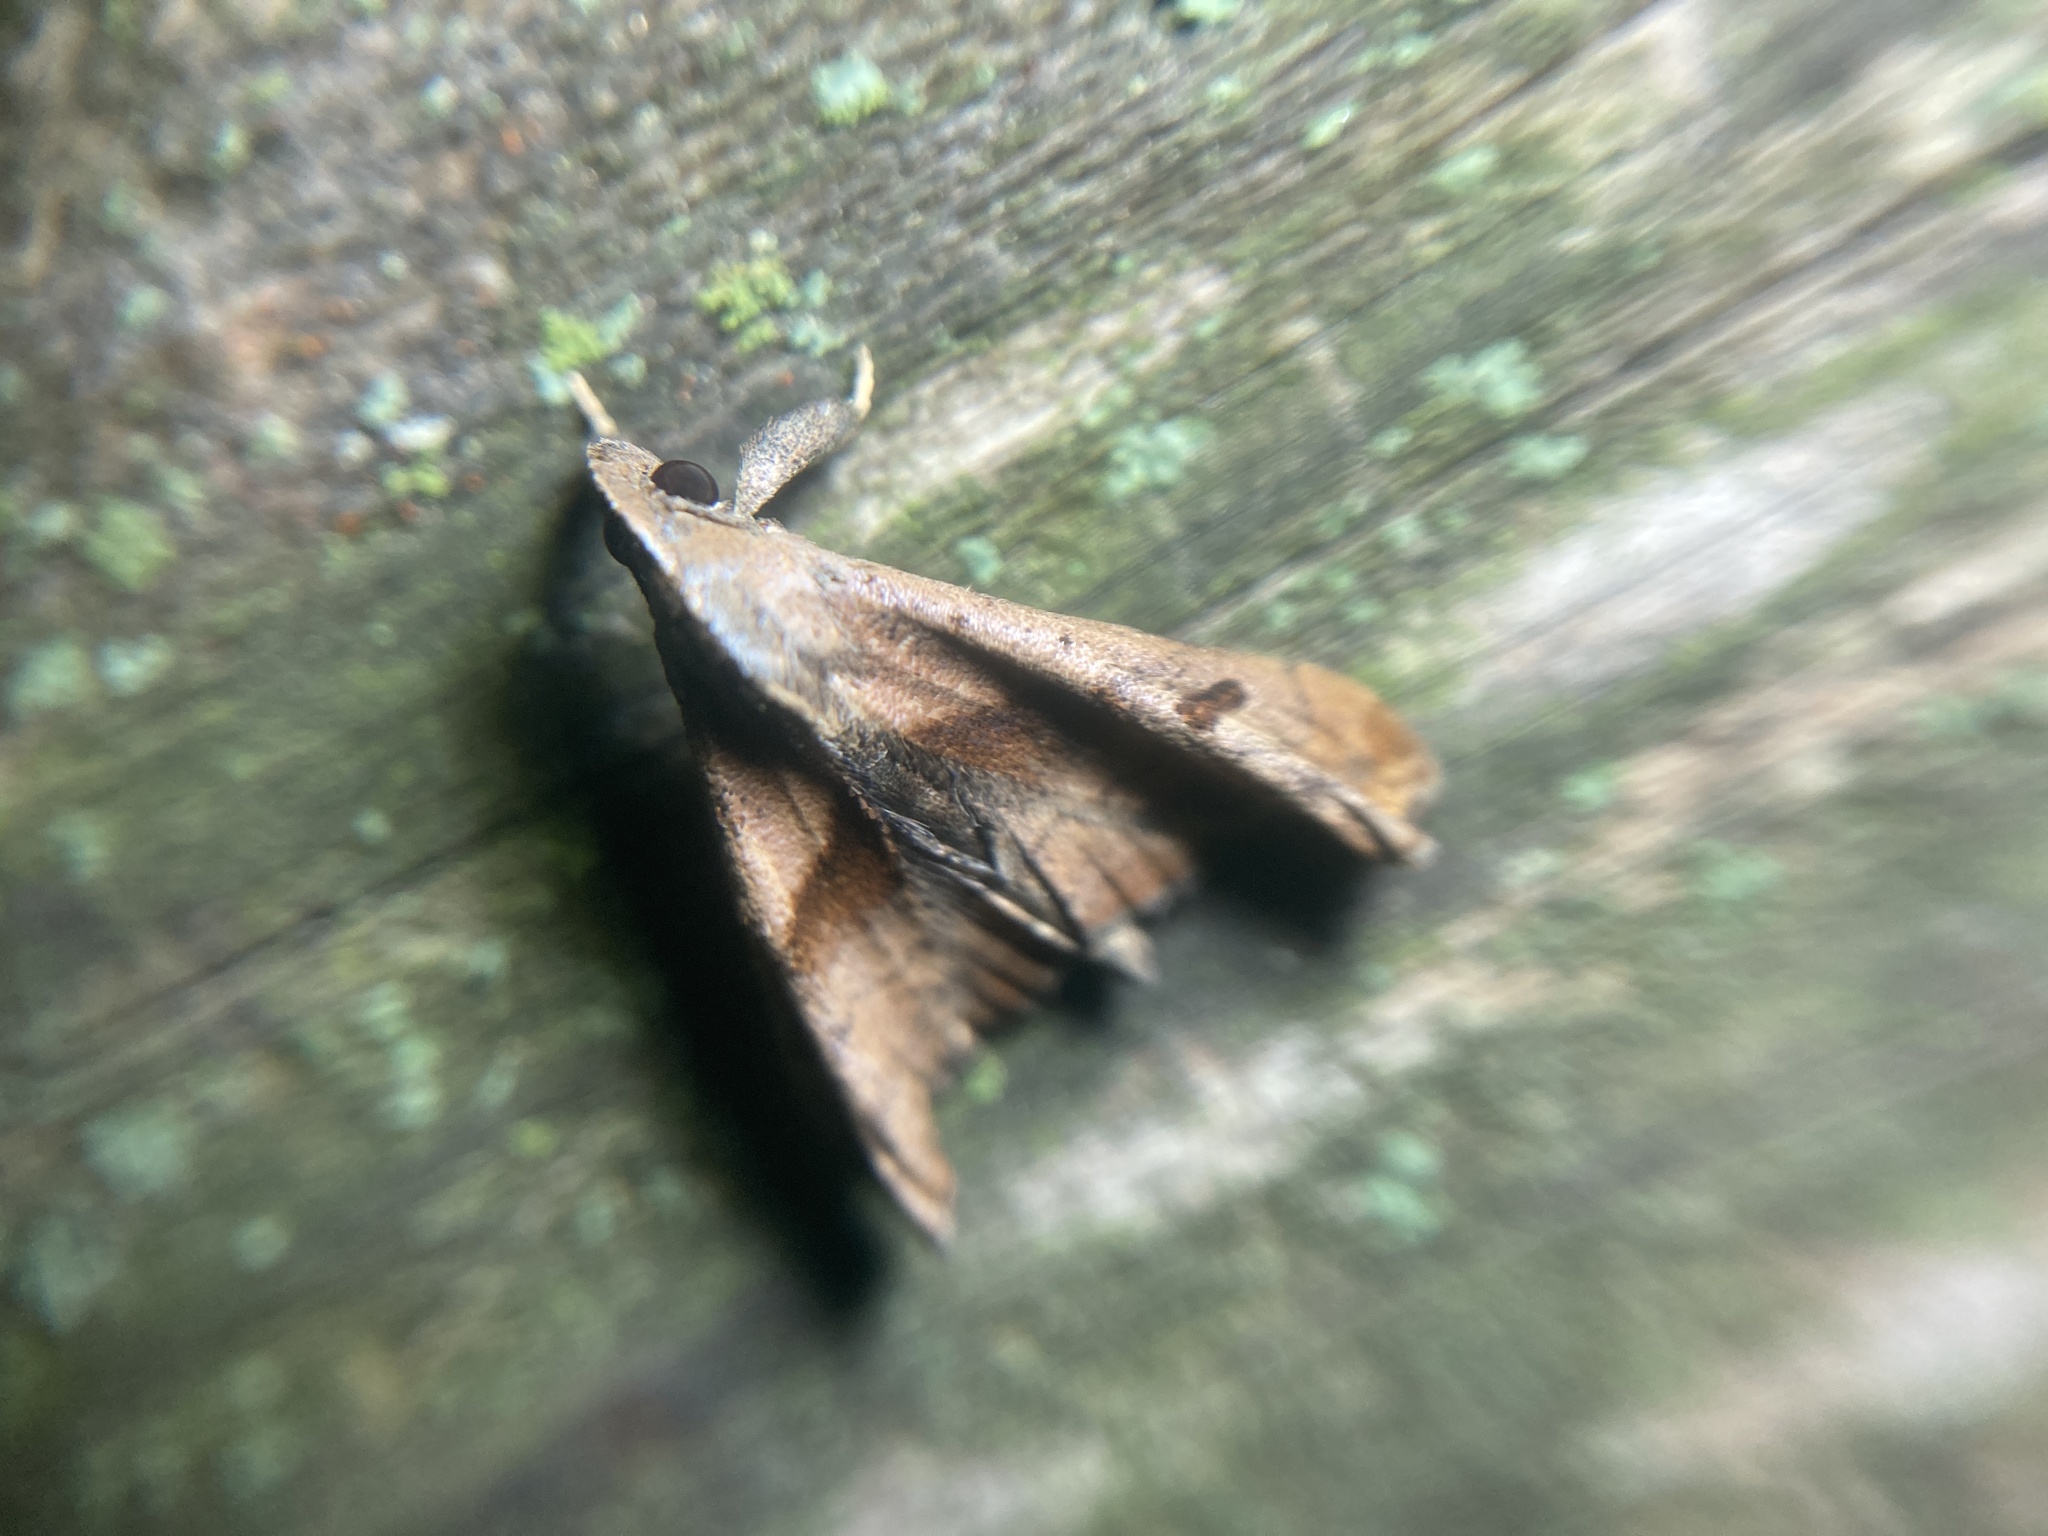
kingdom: Animalia
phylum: Arthropoda
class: Insecta
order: Lepidoptera
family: Erebidae
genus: Palthis
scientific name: Palthis angulalis
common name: Dark-spotted palthis moth
